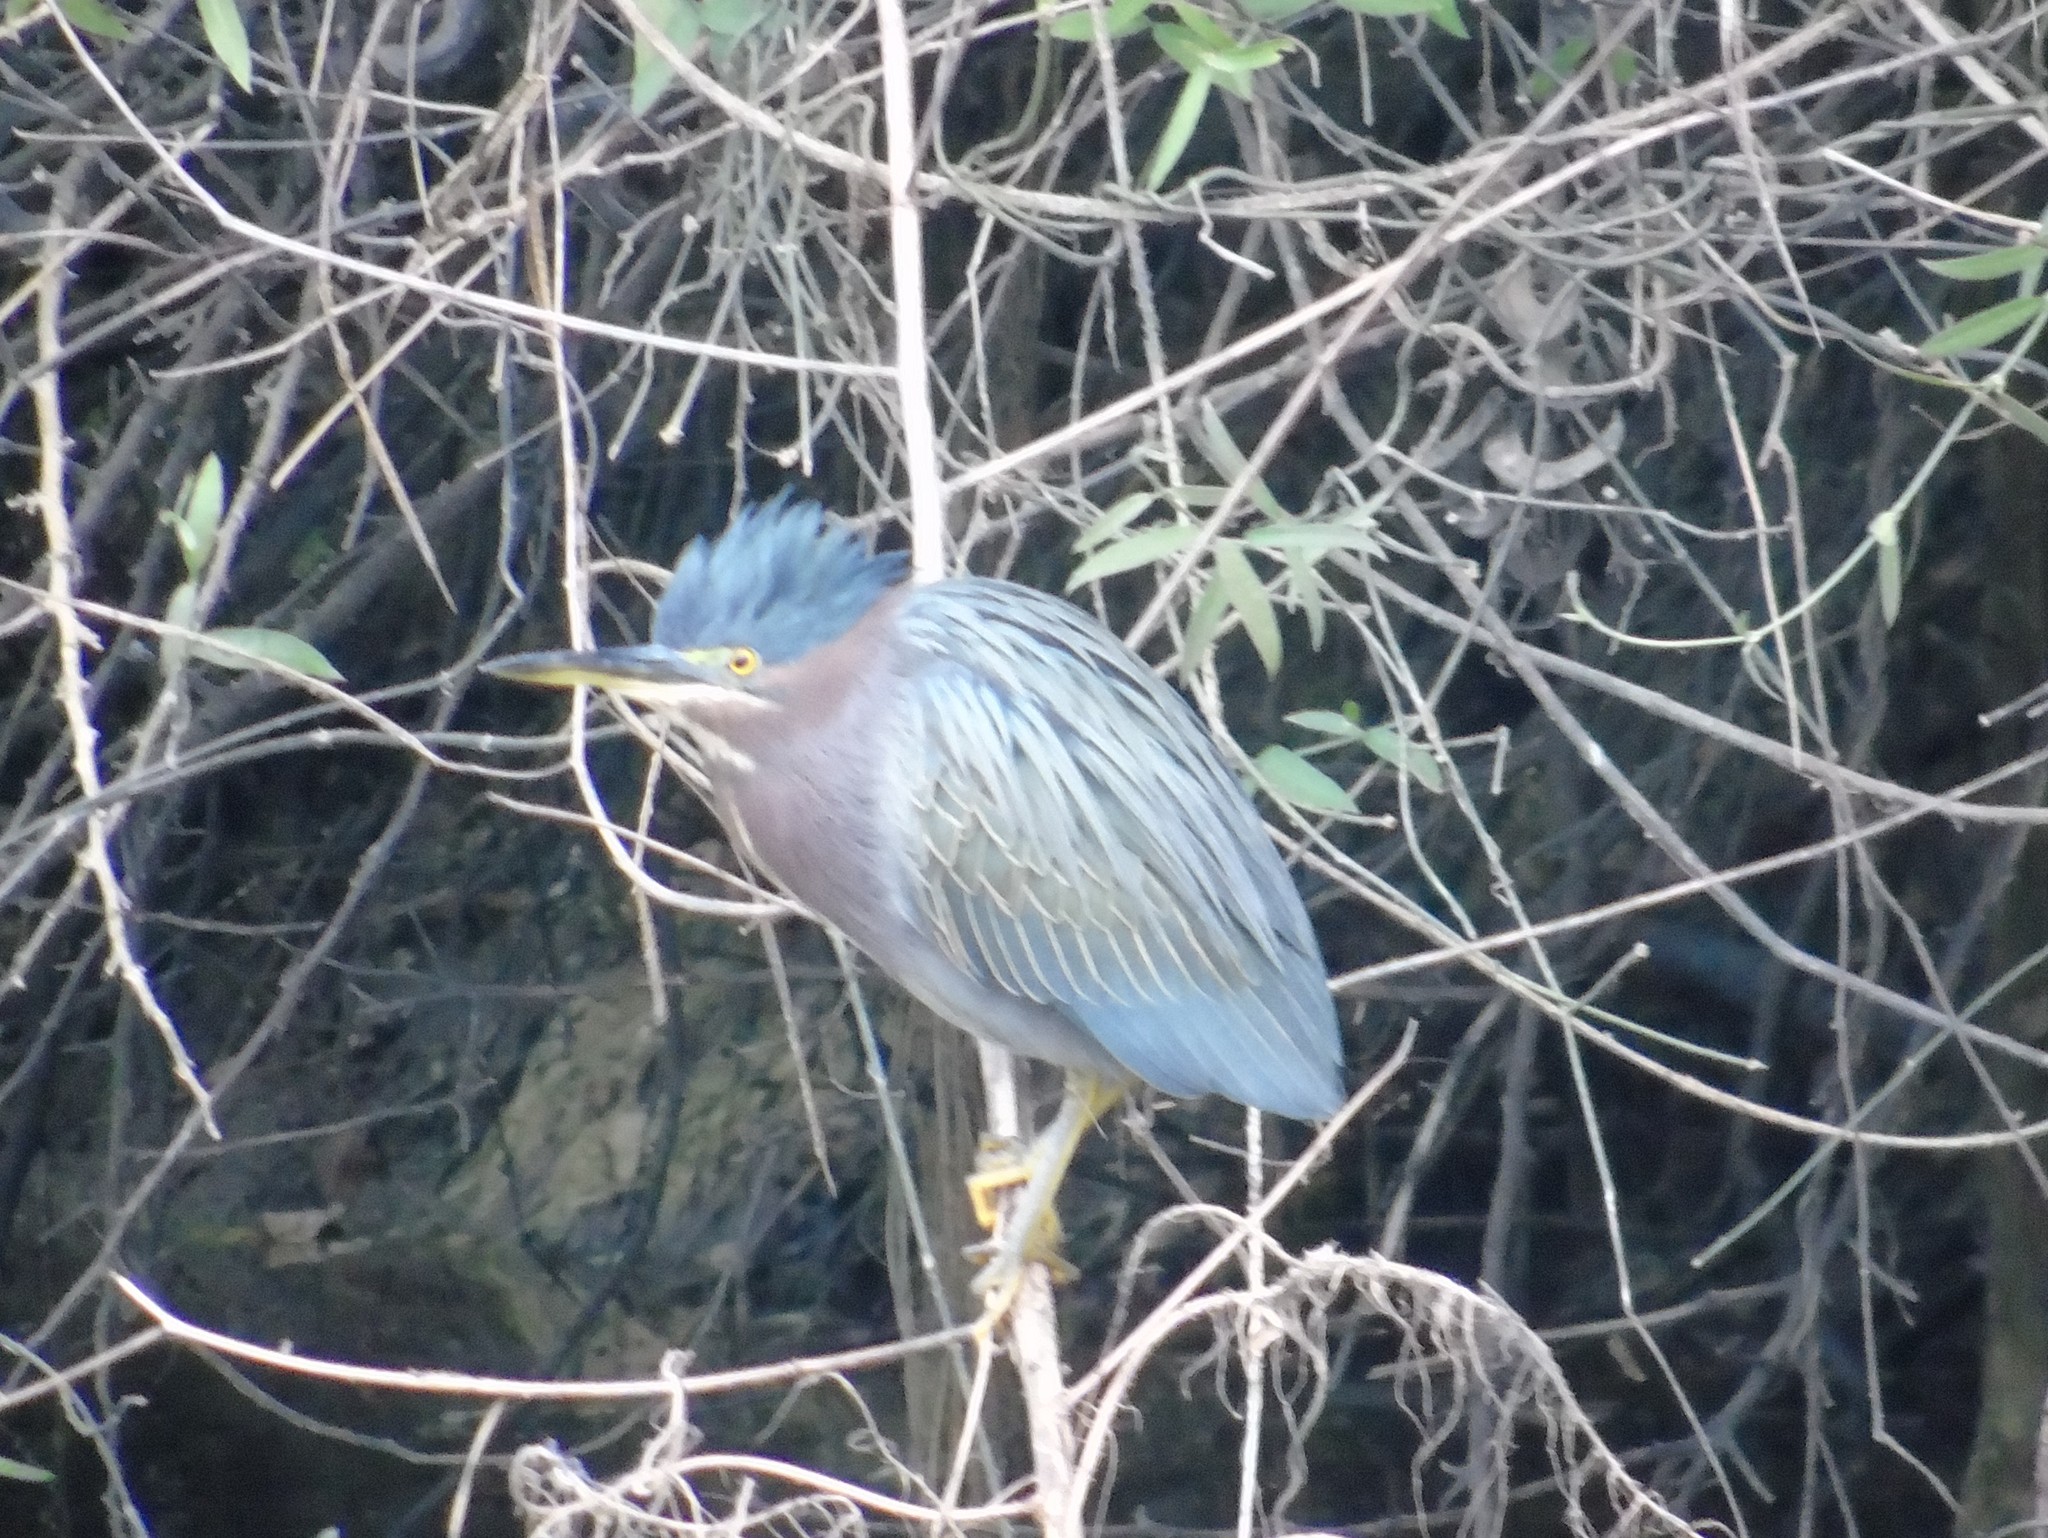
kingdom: Animalia
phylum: Chordata
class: Aves
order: Pelecaniformes
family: Ardeidae
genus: Butorides
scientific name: Butorides virescens
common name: Green heron
